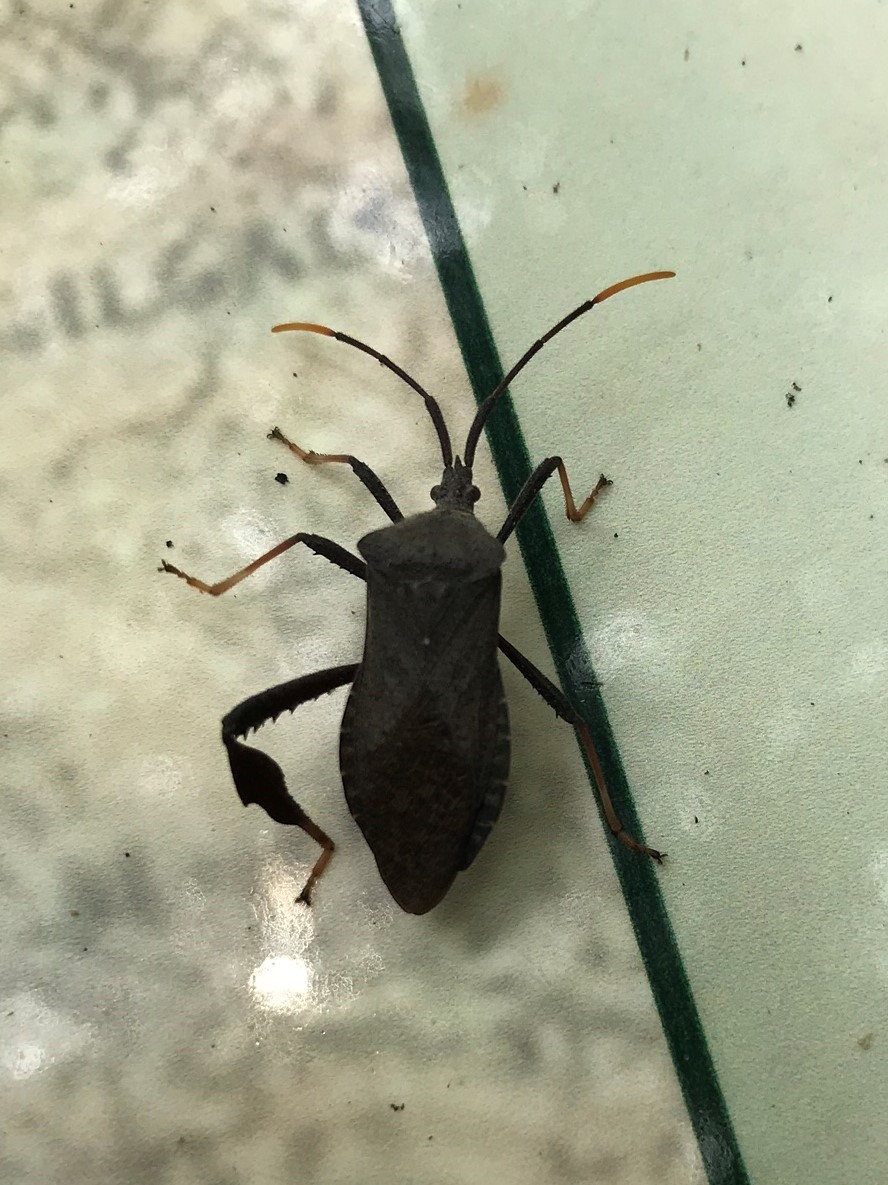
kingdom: Animalia
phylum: Arthropoda
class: Insecta
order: Hemiptera
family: Coreidae
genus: Acanthocephala
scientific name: Acanthocephala terminalis
